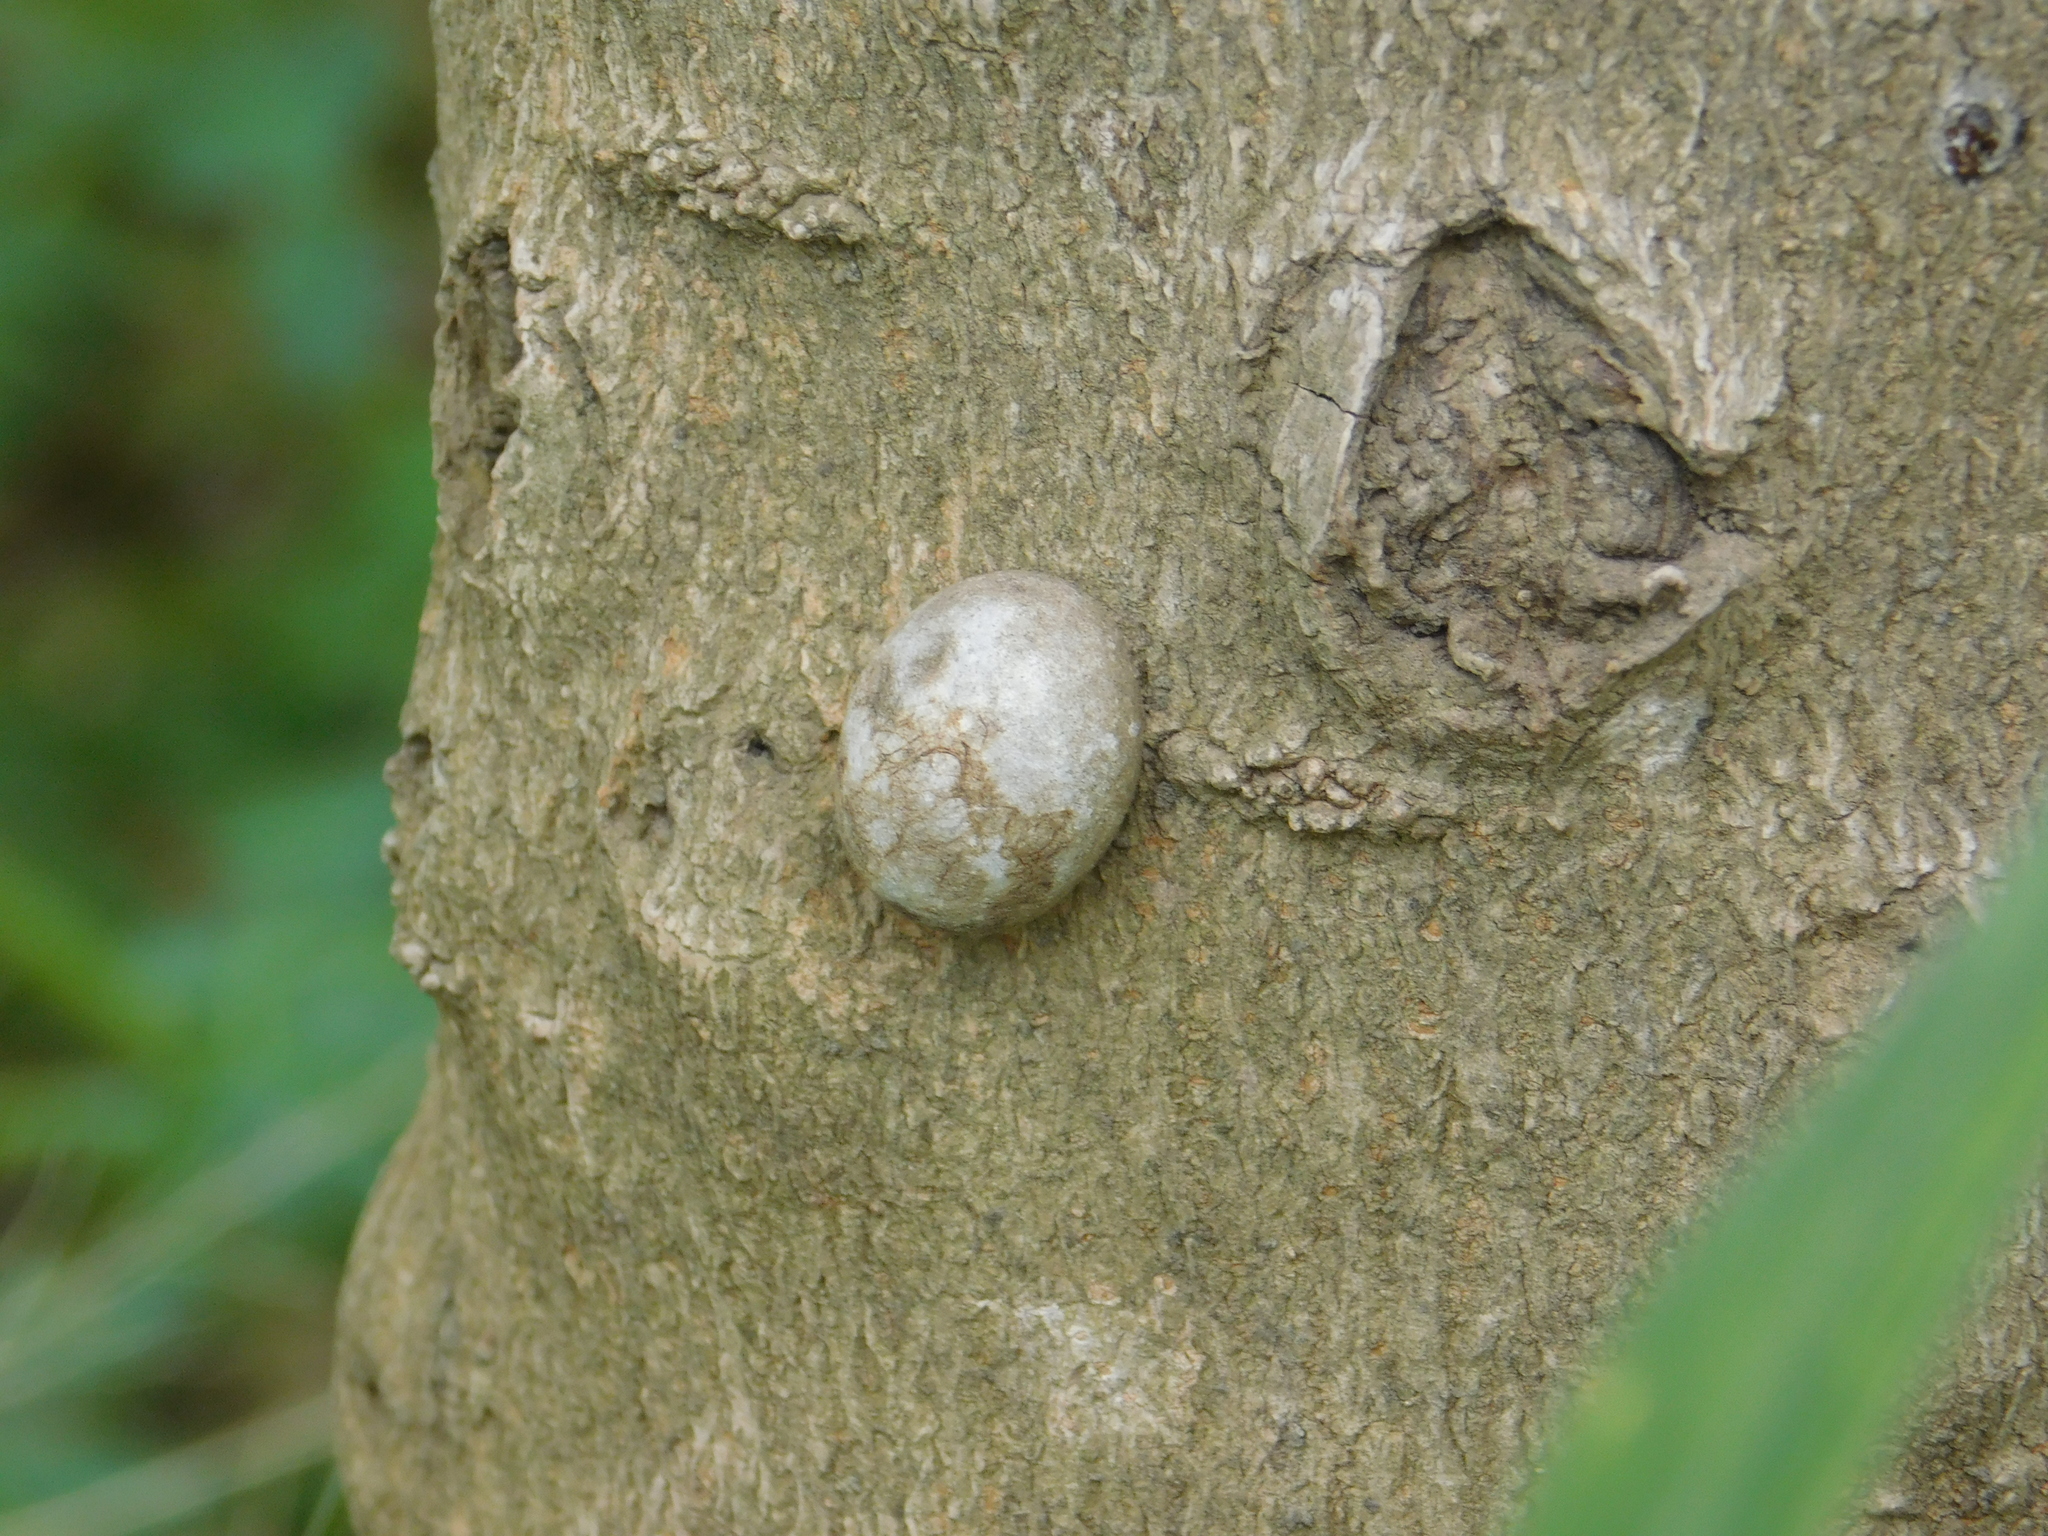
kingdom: Protozoa
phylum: Mycetozoa
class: Myxomycetes
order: Cribrariales
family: Tubiferaceae
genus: Reticularia
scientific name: Reticularia lycoperdon
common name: False puffball
